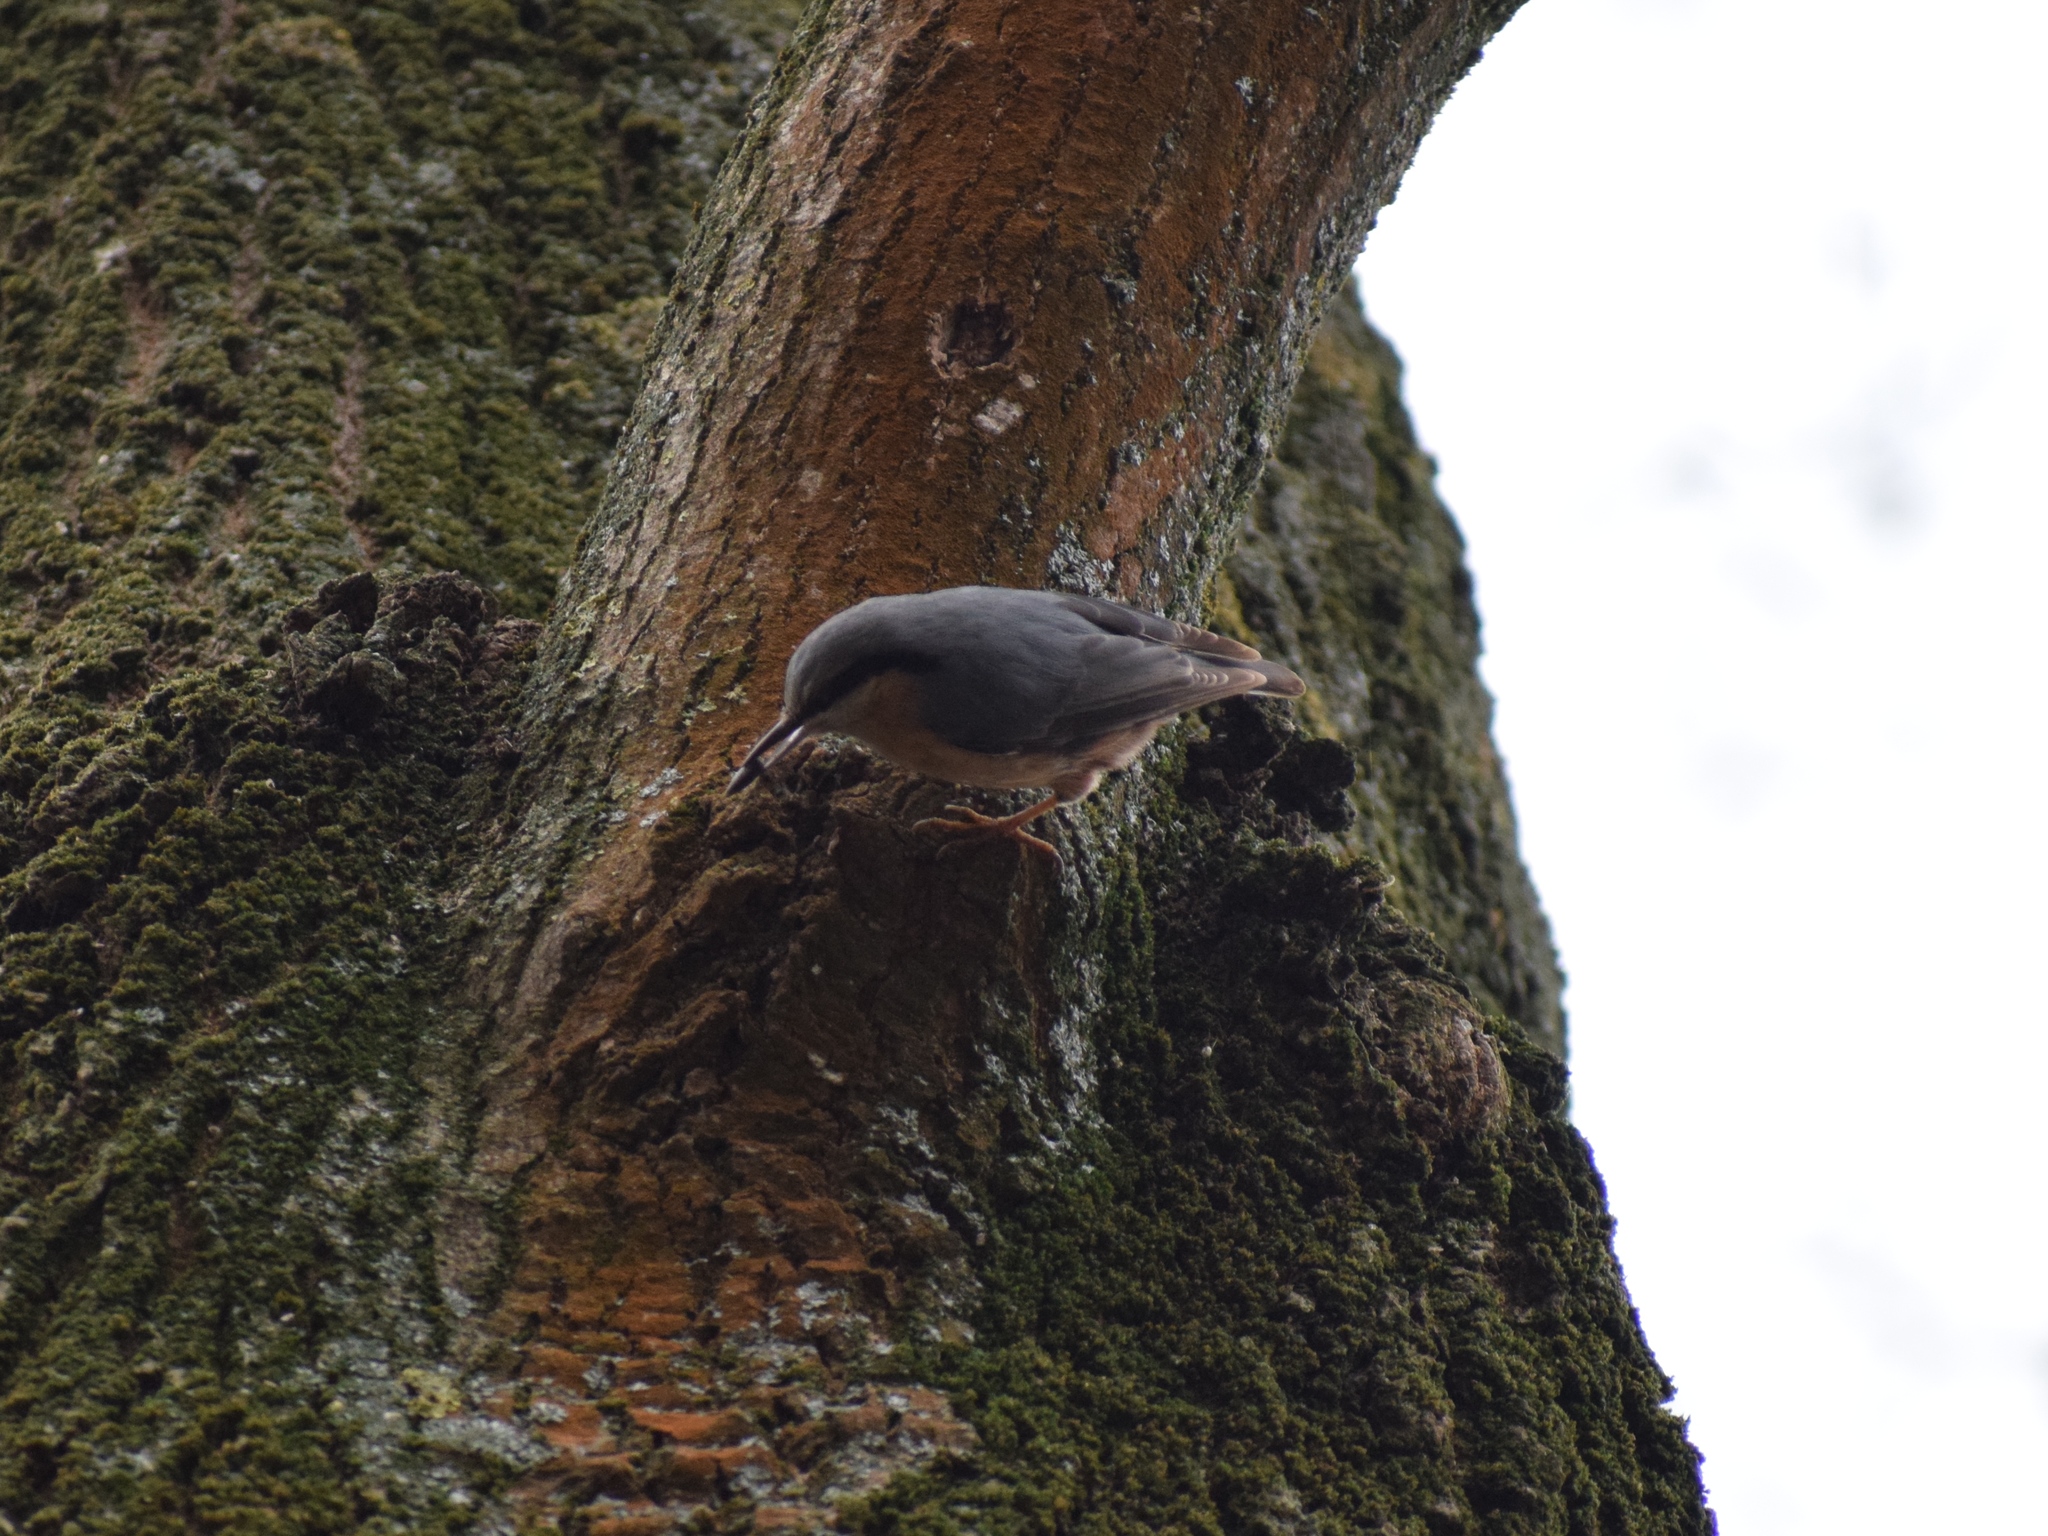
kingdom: Animalia
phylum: Chordata
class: Aves
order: Passeriformes
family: Sittidae
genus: Sitta
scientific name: Sitta europaea
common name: Eurasian nuthatch
